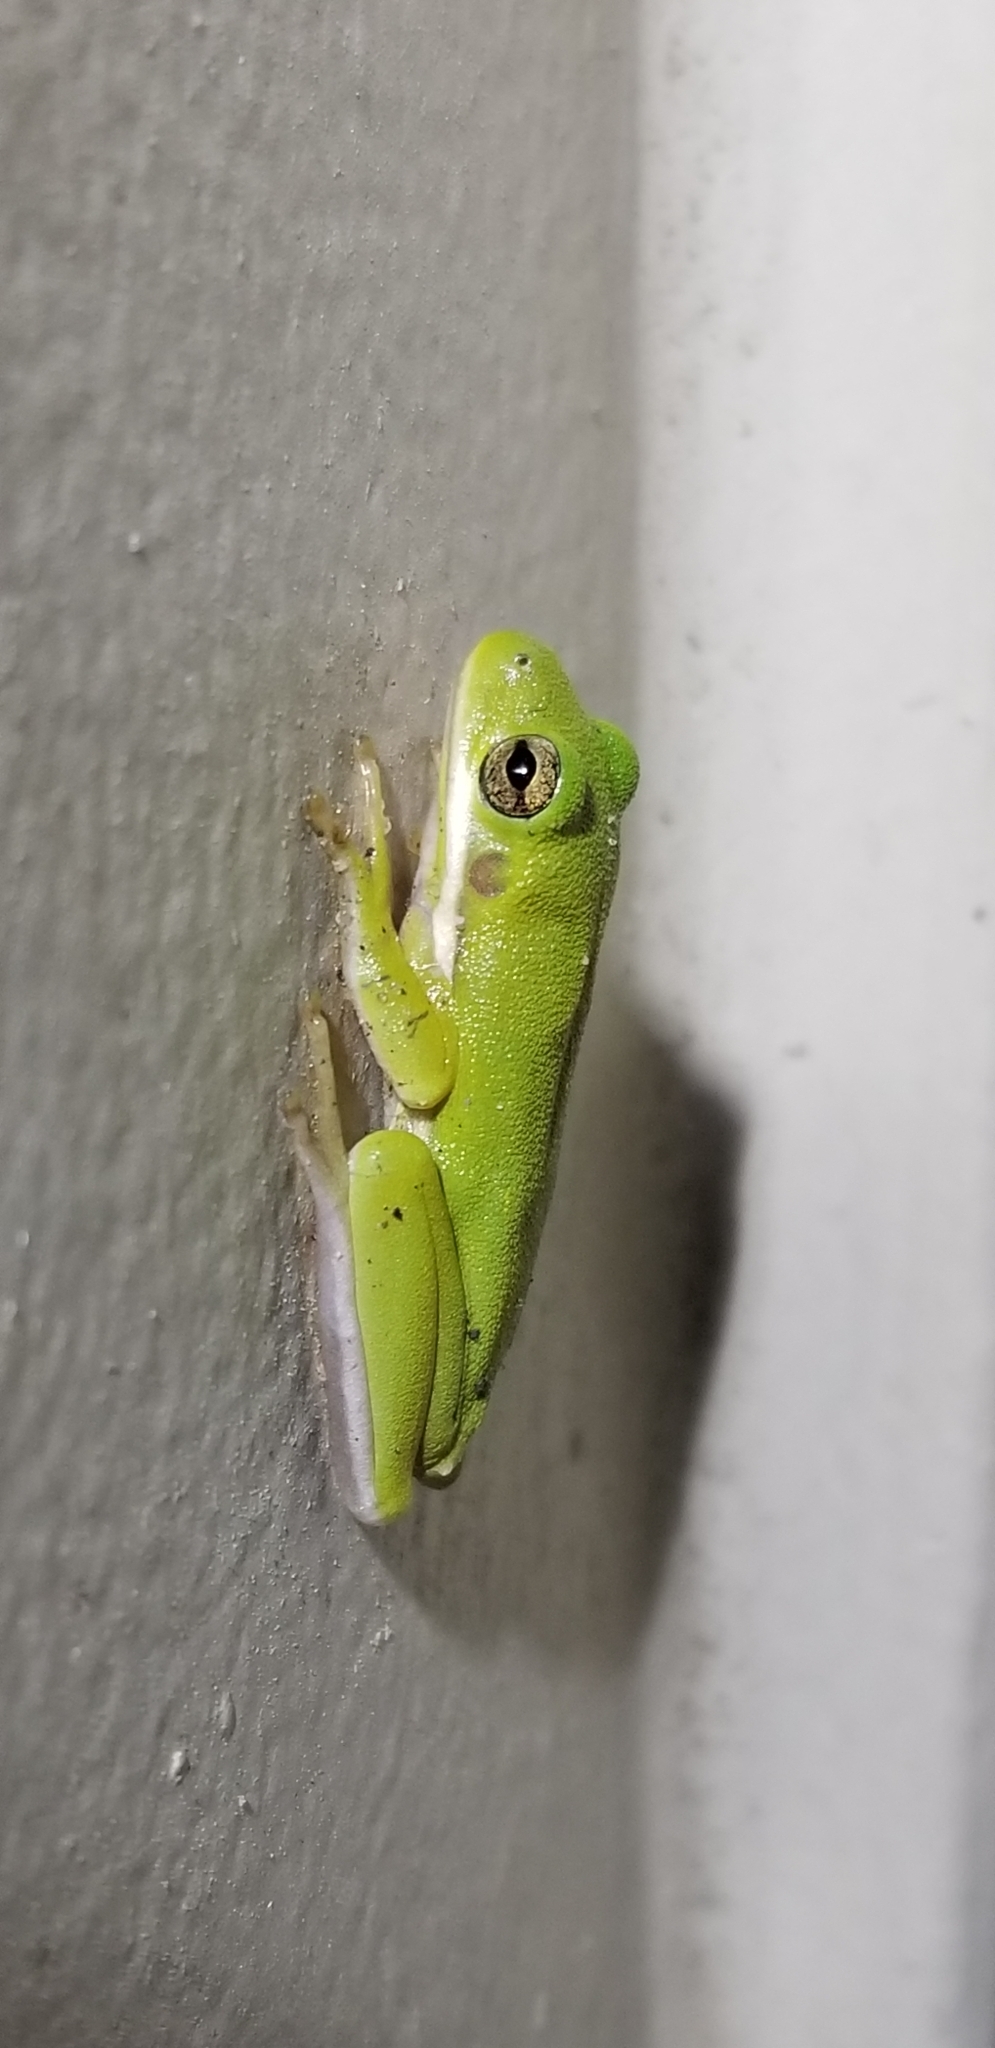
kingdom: Animalia
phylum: Chordata
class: Amphibia
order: Anura
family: Hylidae
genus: Dryophytes
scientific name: Dryophytes cinereus
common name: Green treefrog
